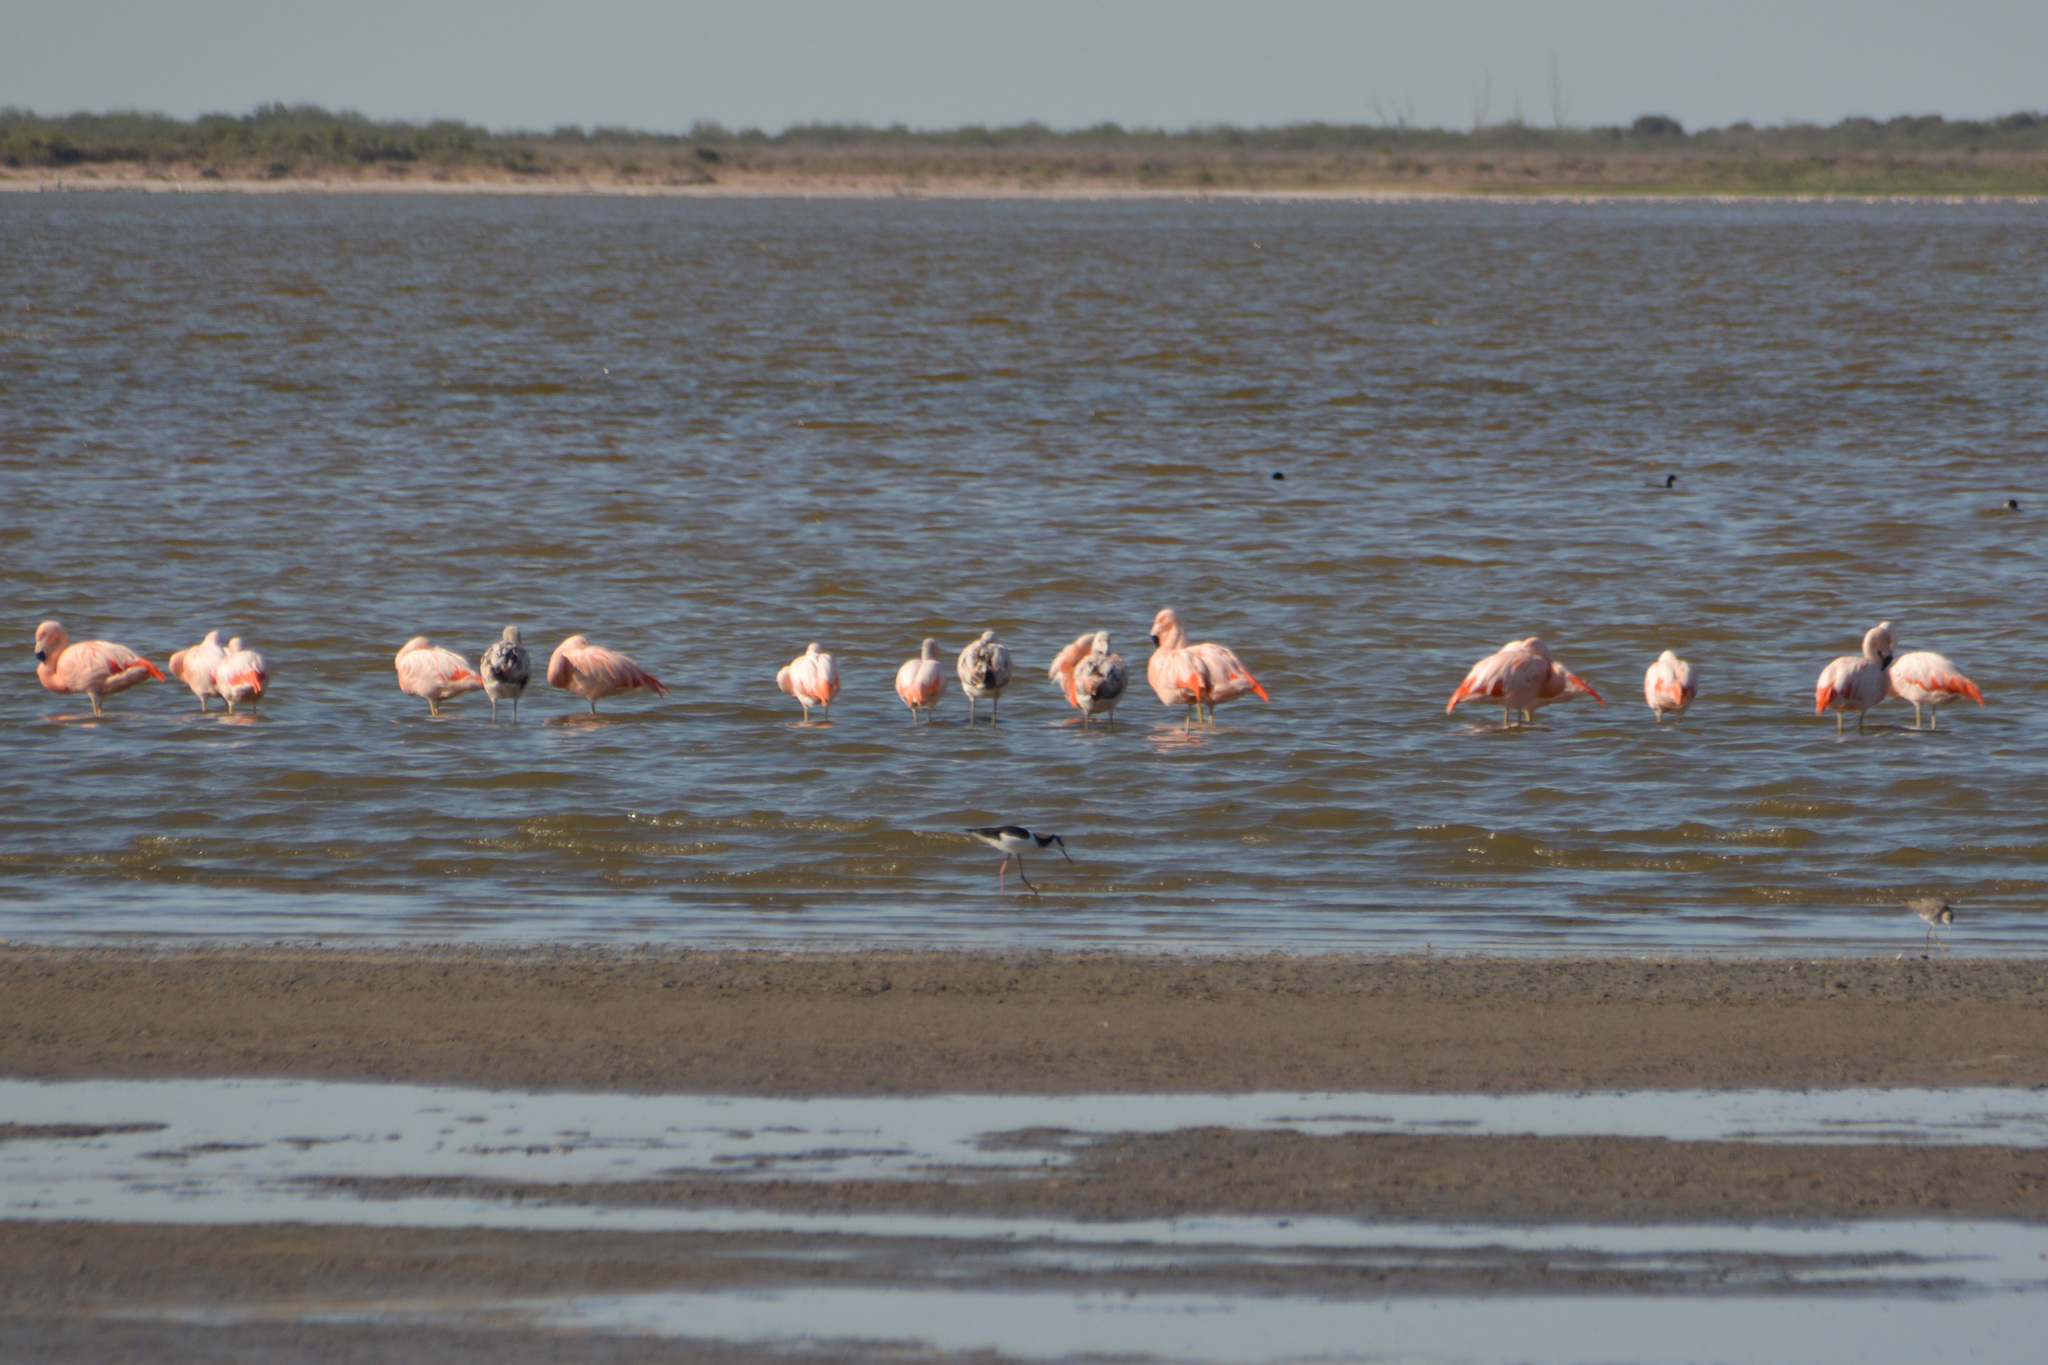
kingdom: Animalia
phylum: Chordata
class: Aves
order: Phoenicopteriformes
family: Phoenicopteridae
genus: Phoenicopterus
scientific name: Phoenicopterus chilensis
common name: Chilean flamingo
